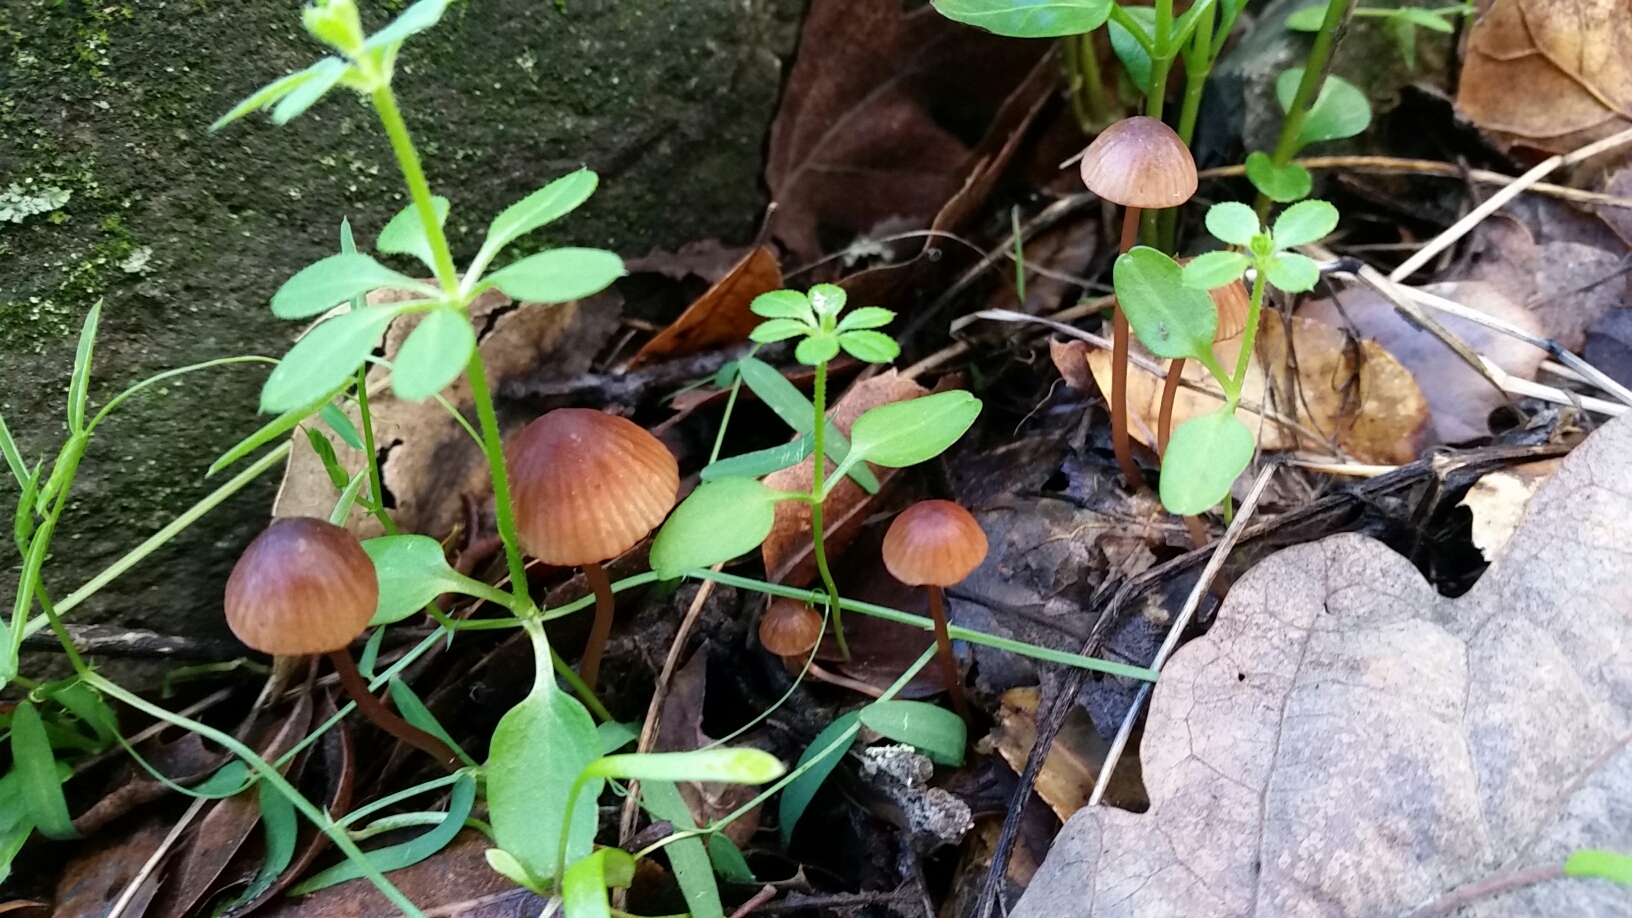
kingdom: Fungi
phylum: Basidiomycota
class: Agaricomycetes
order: Agaricales
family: Mycenaceae
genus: Mycena
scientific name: Mycena
